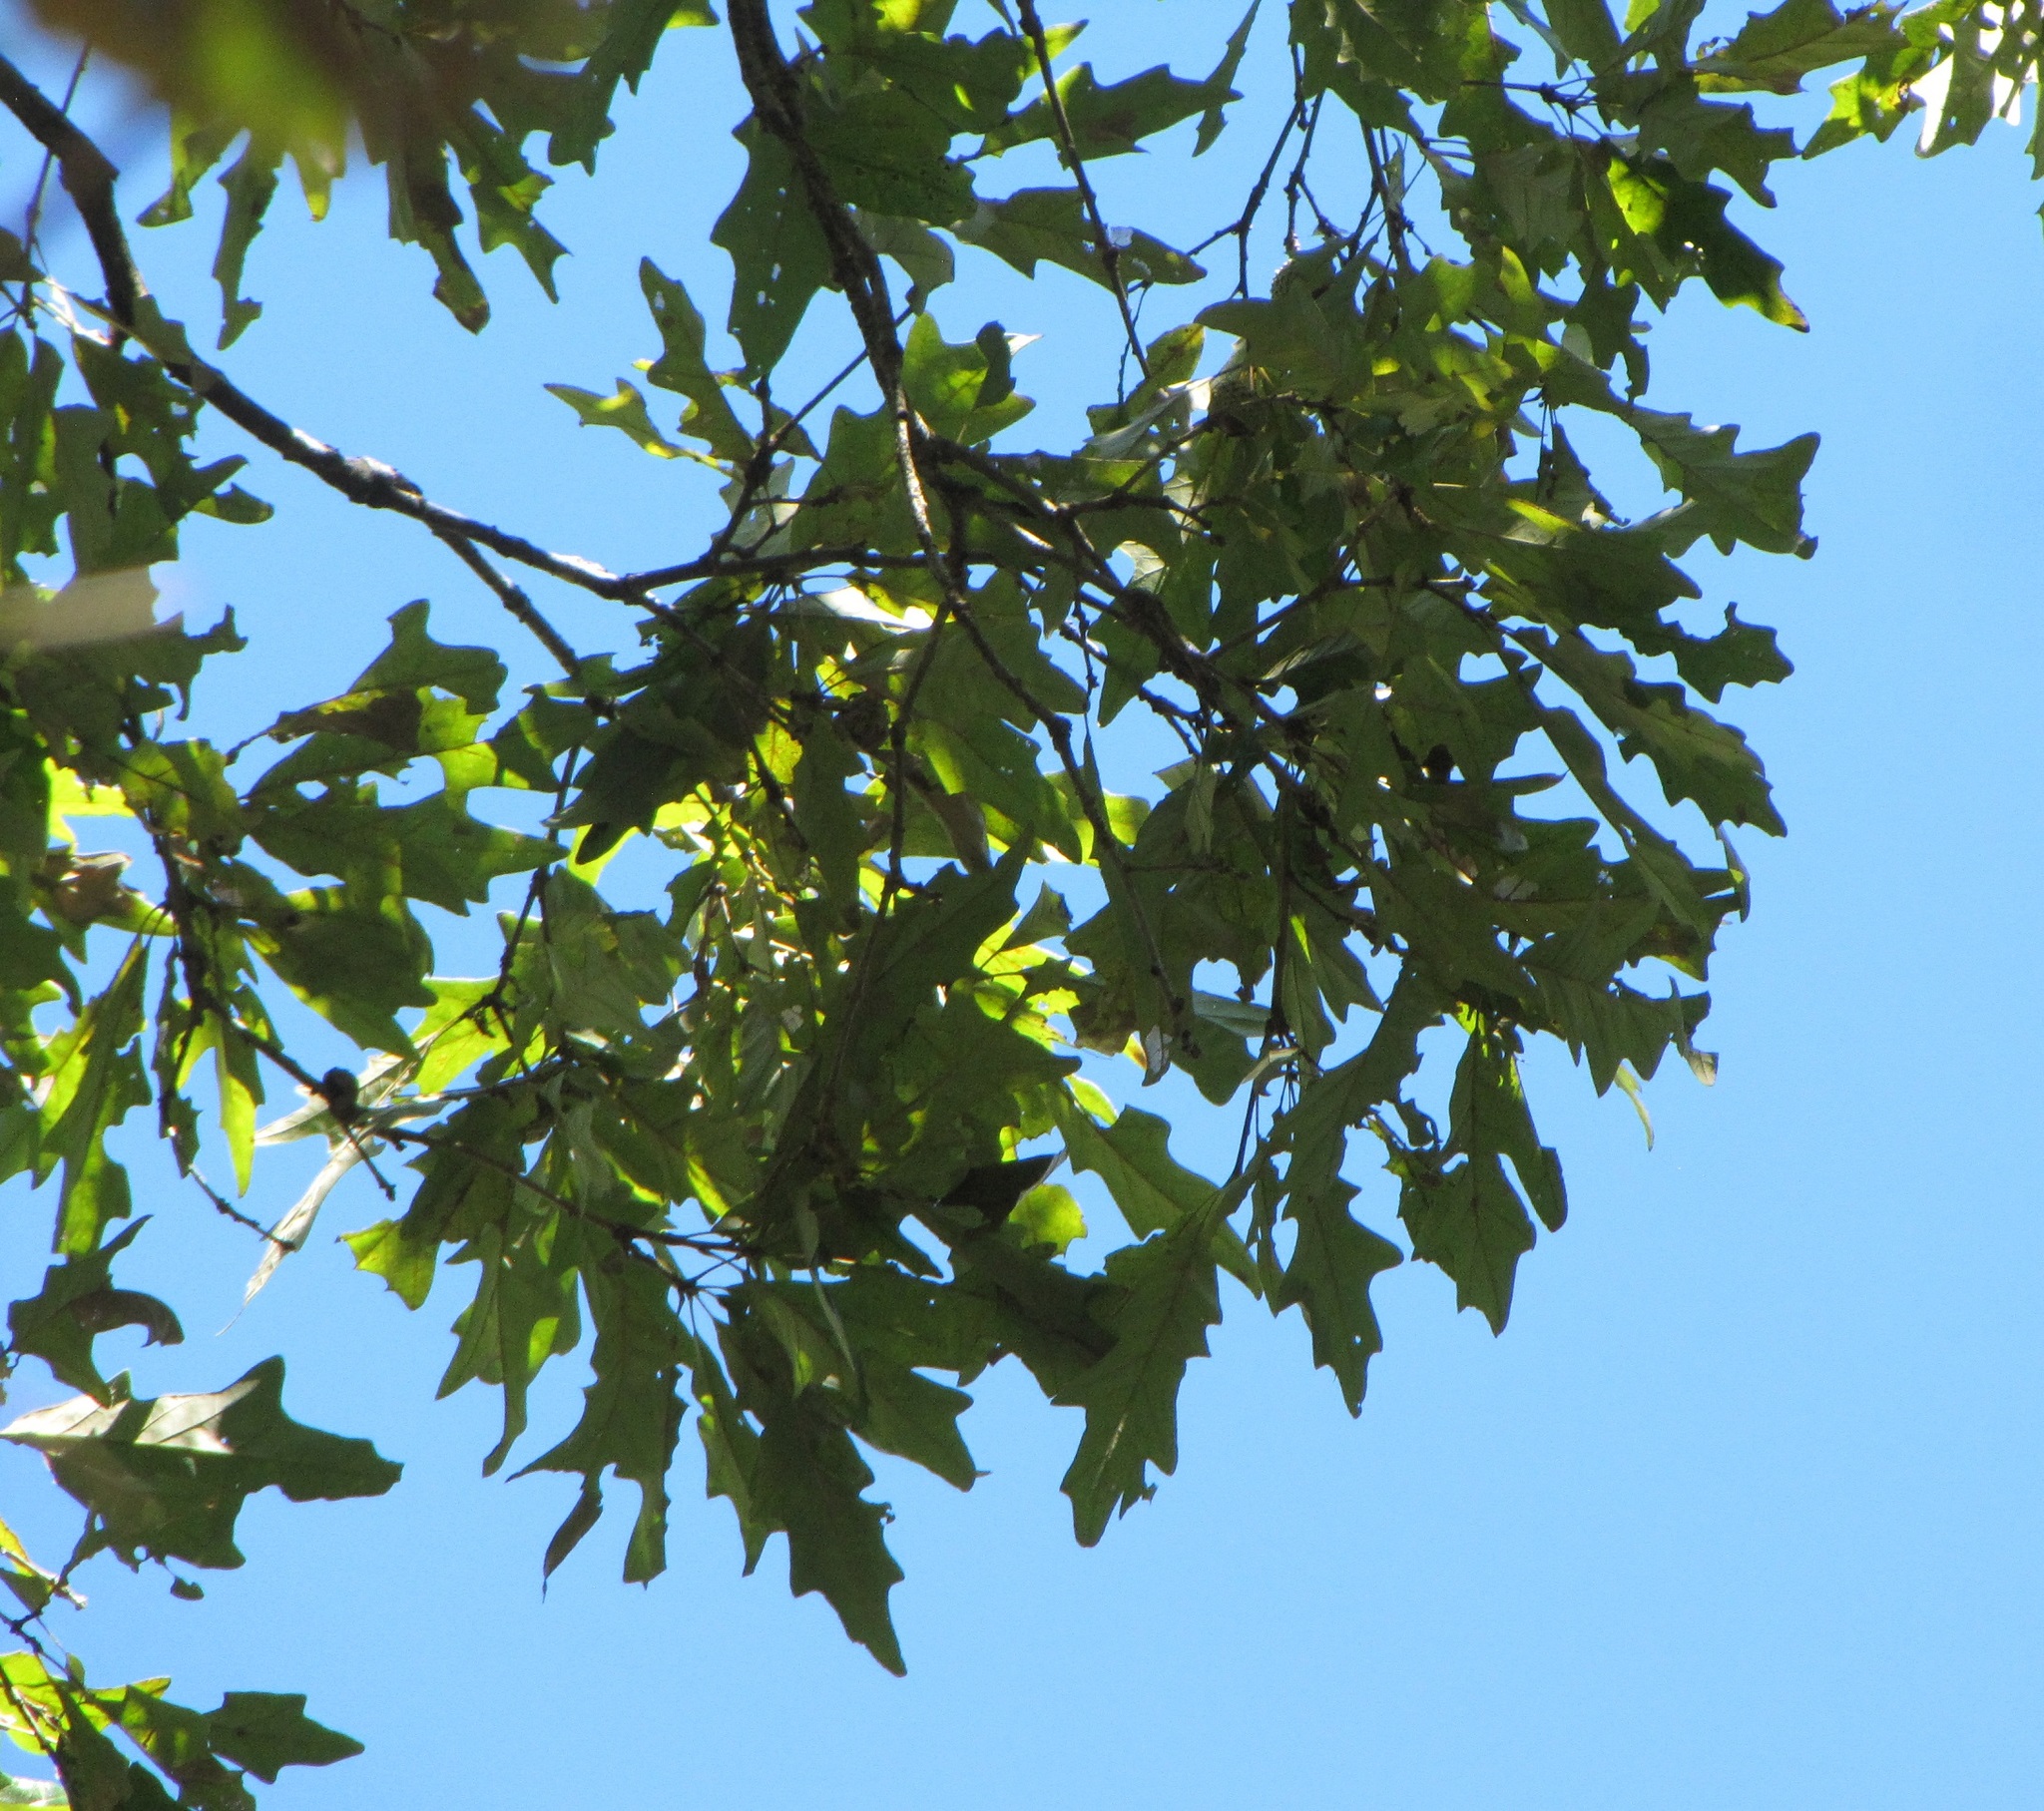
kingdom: Plantae
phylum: Tracheophyta
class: Magnoliopsida
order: Fagales
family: Fagaceae
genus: Quercus
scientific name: Quercus lyrata
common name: Overcup oak
